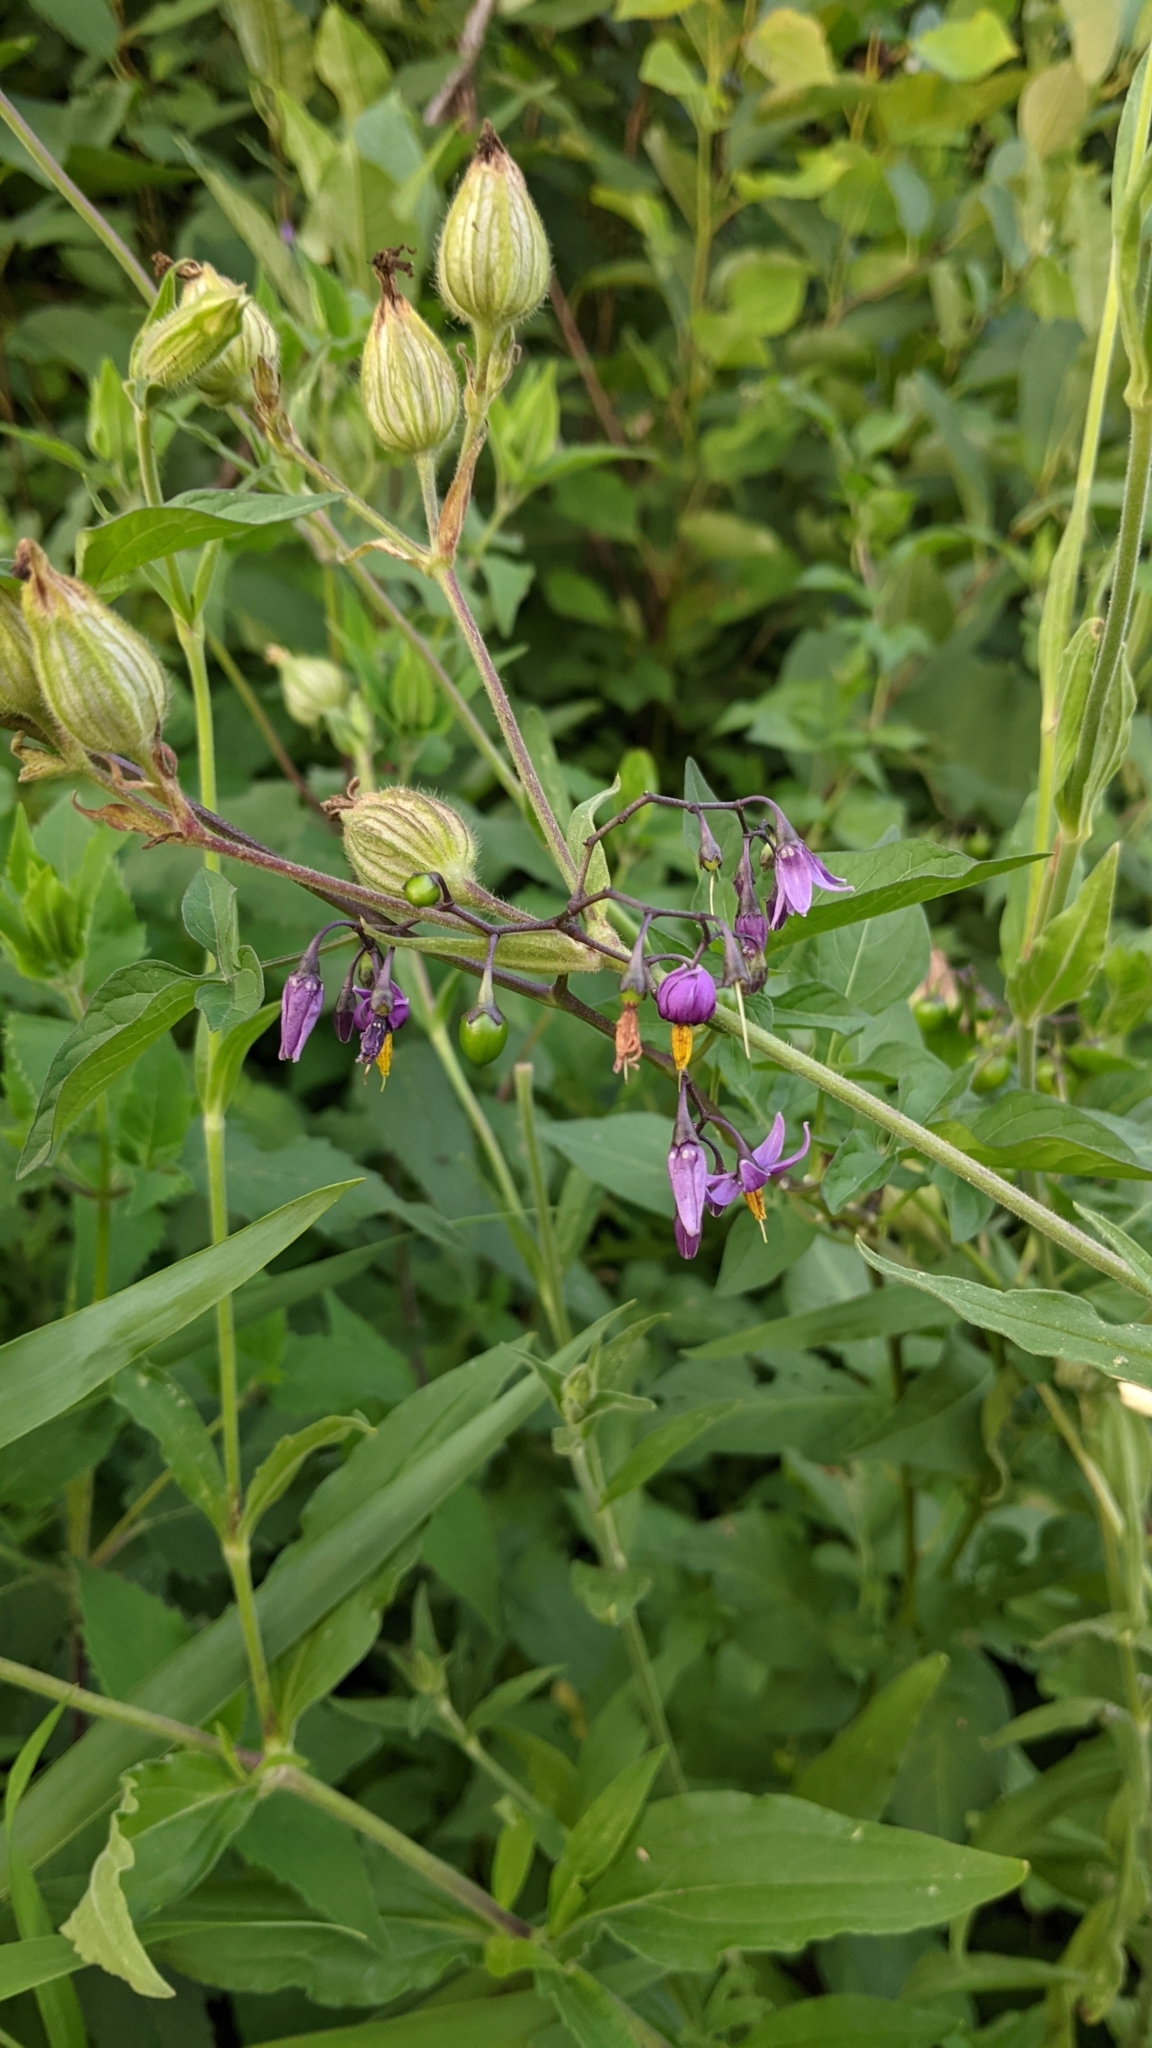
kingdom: Plantae
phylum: Tracheophyta
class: Magnoliopsida
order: Solanales
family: Solanaceae
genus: Solanum
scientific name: Solanum dulcamara
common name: Climbing nightshade
